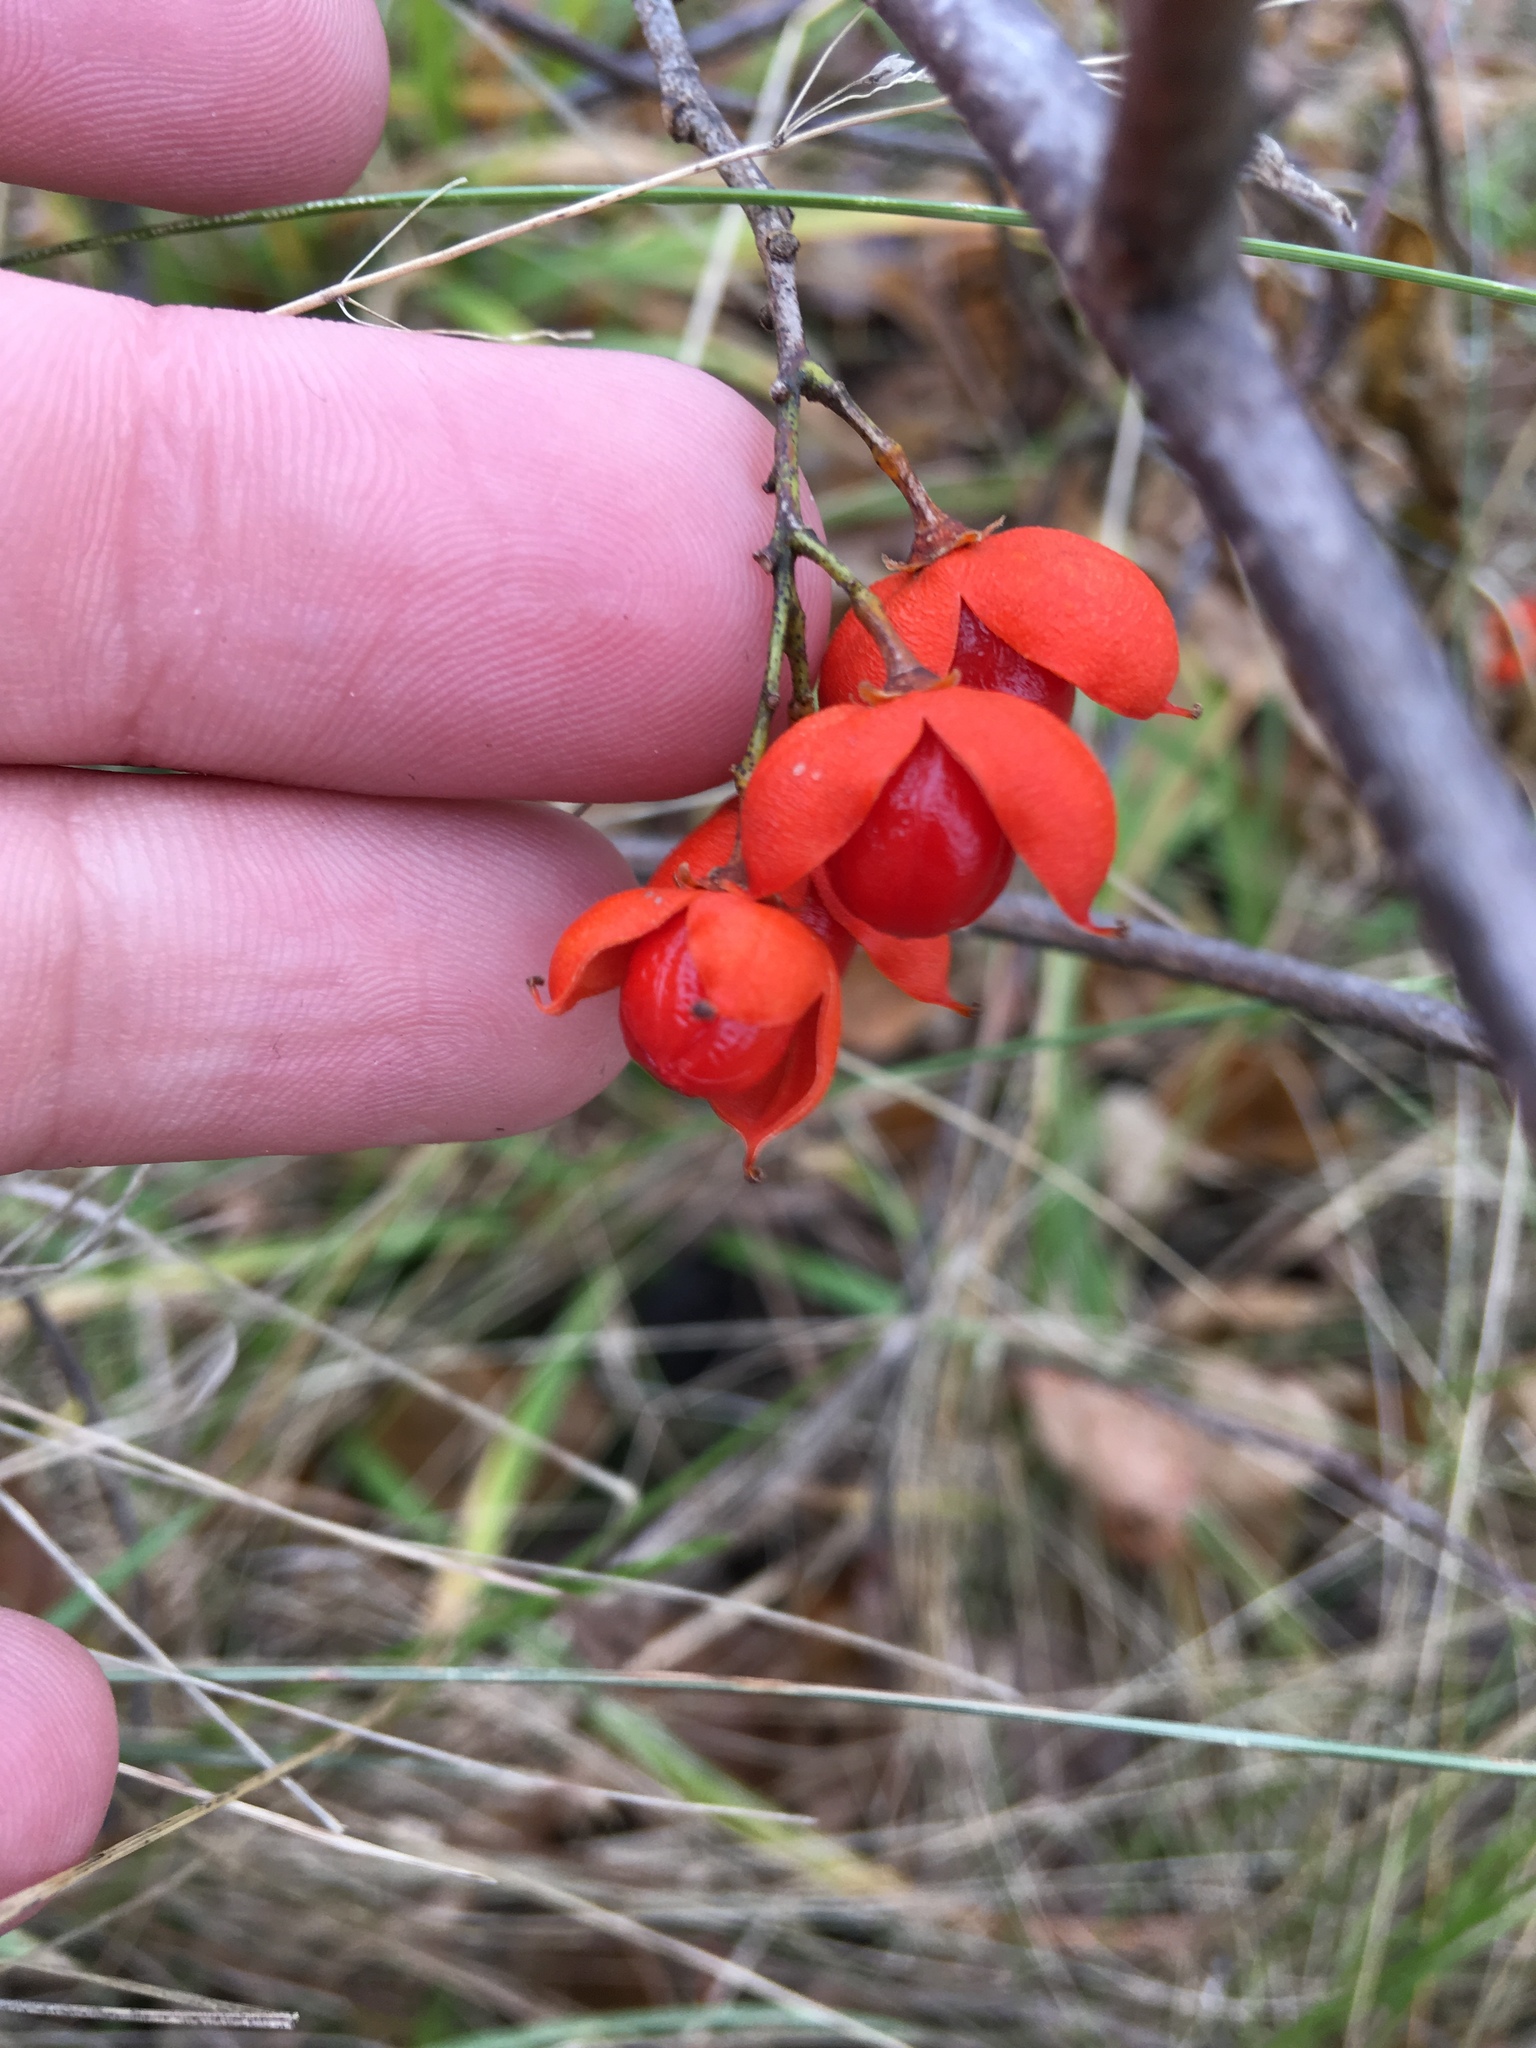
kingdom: Plantae
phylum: Tracheophyta
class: Magnoliopsida
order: Celastrales
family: Celastraceae
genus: Celastrus
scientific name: Celastrus scandens
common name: American bittersweet
